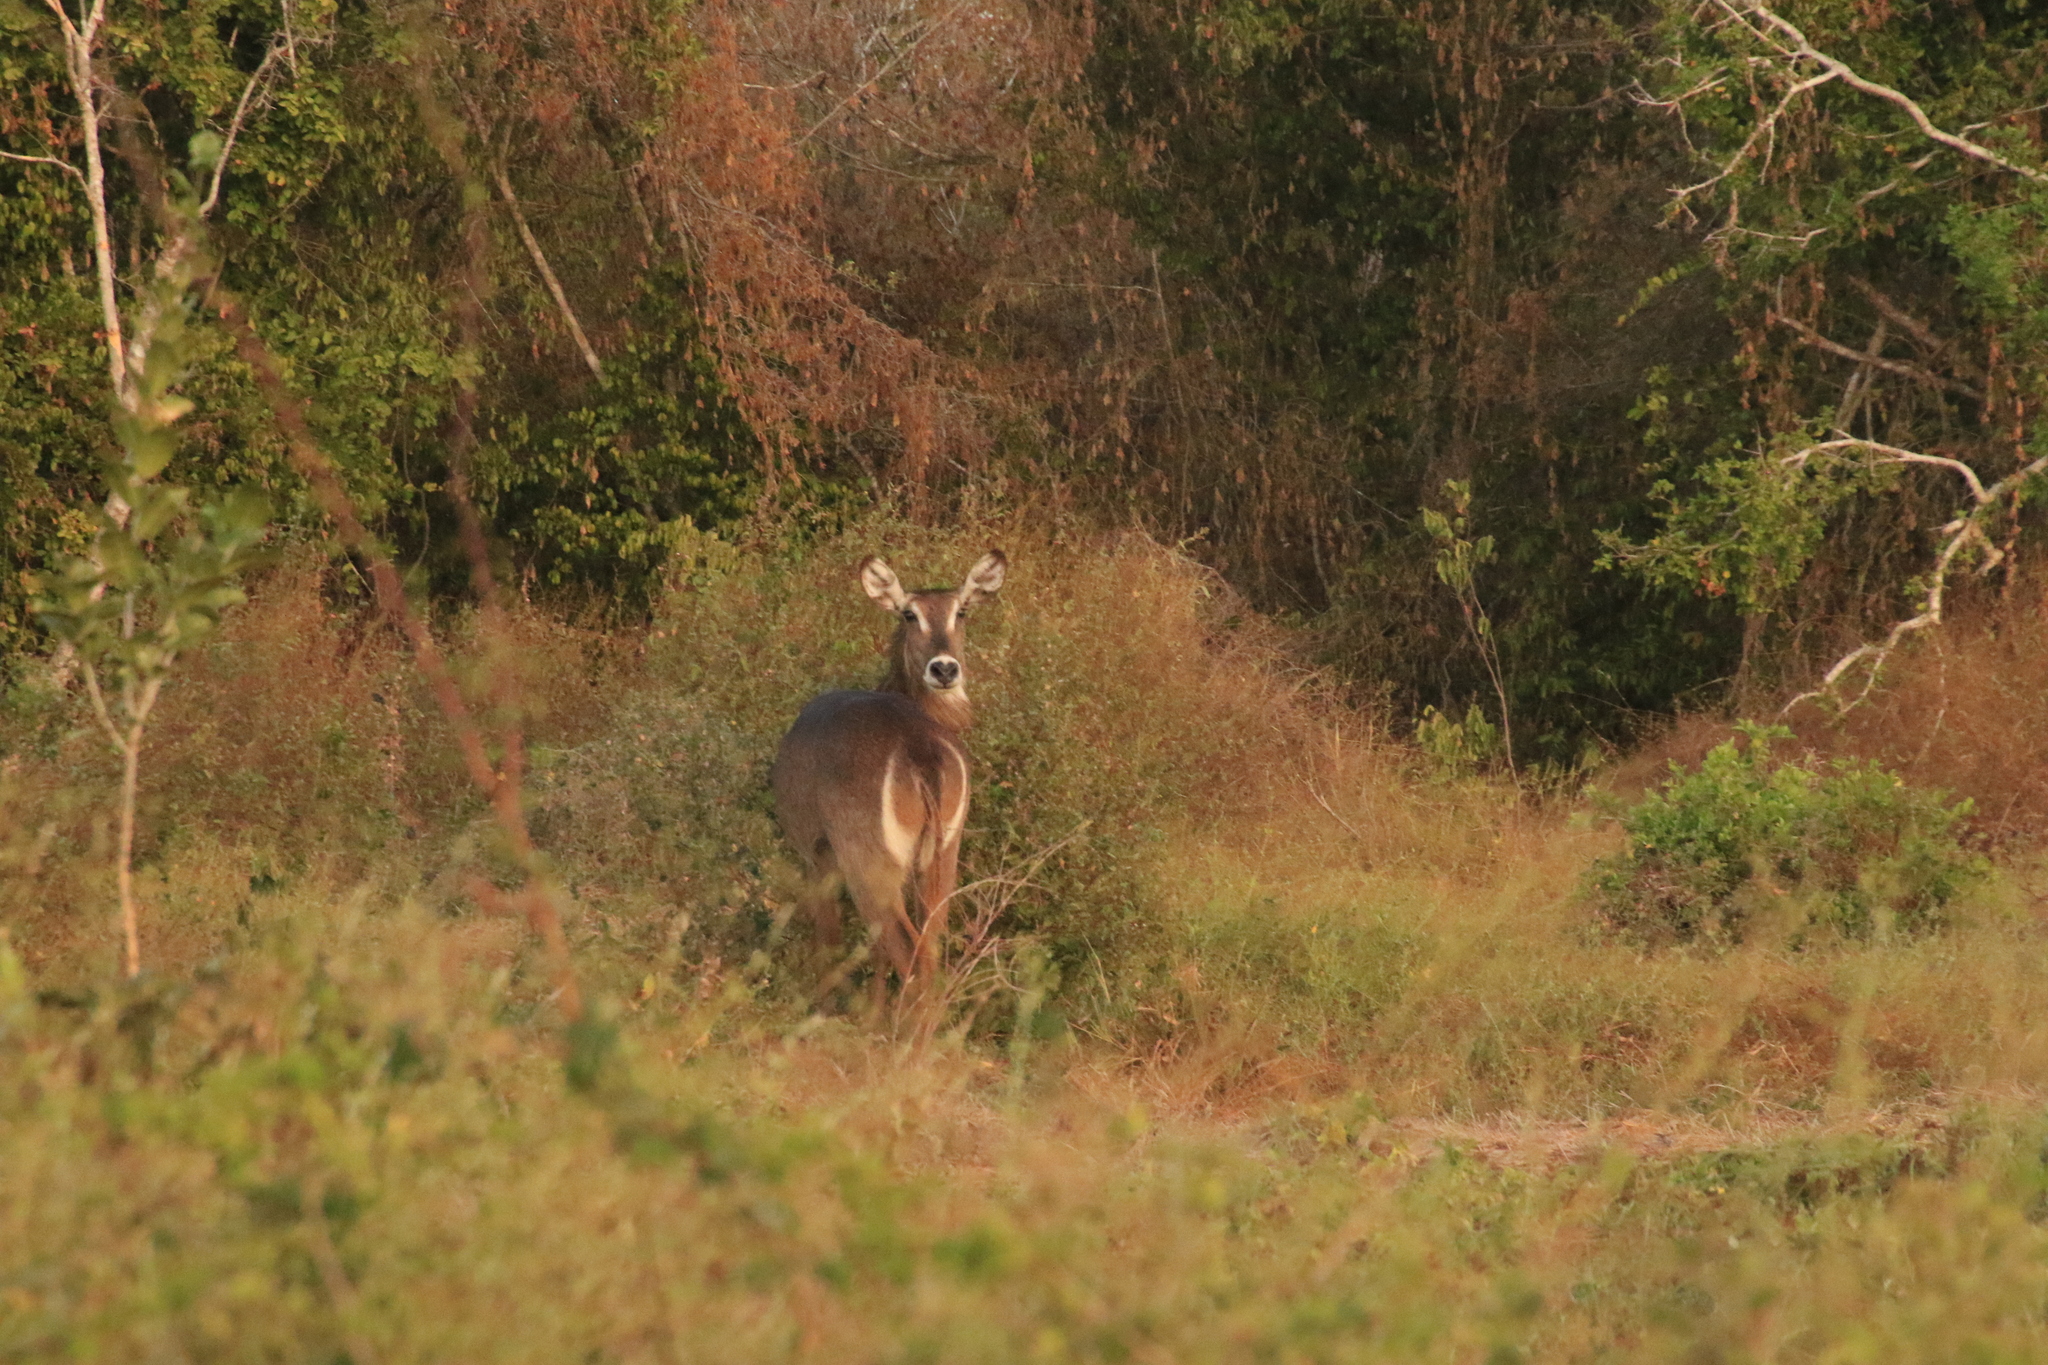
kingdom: Animalia
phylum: Chordata
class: Mammalia
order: Artiodactyla
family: Bovidae
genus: Kobus
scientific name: Kobus ellipsiprymnus
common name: Waterbuck
